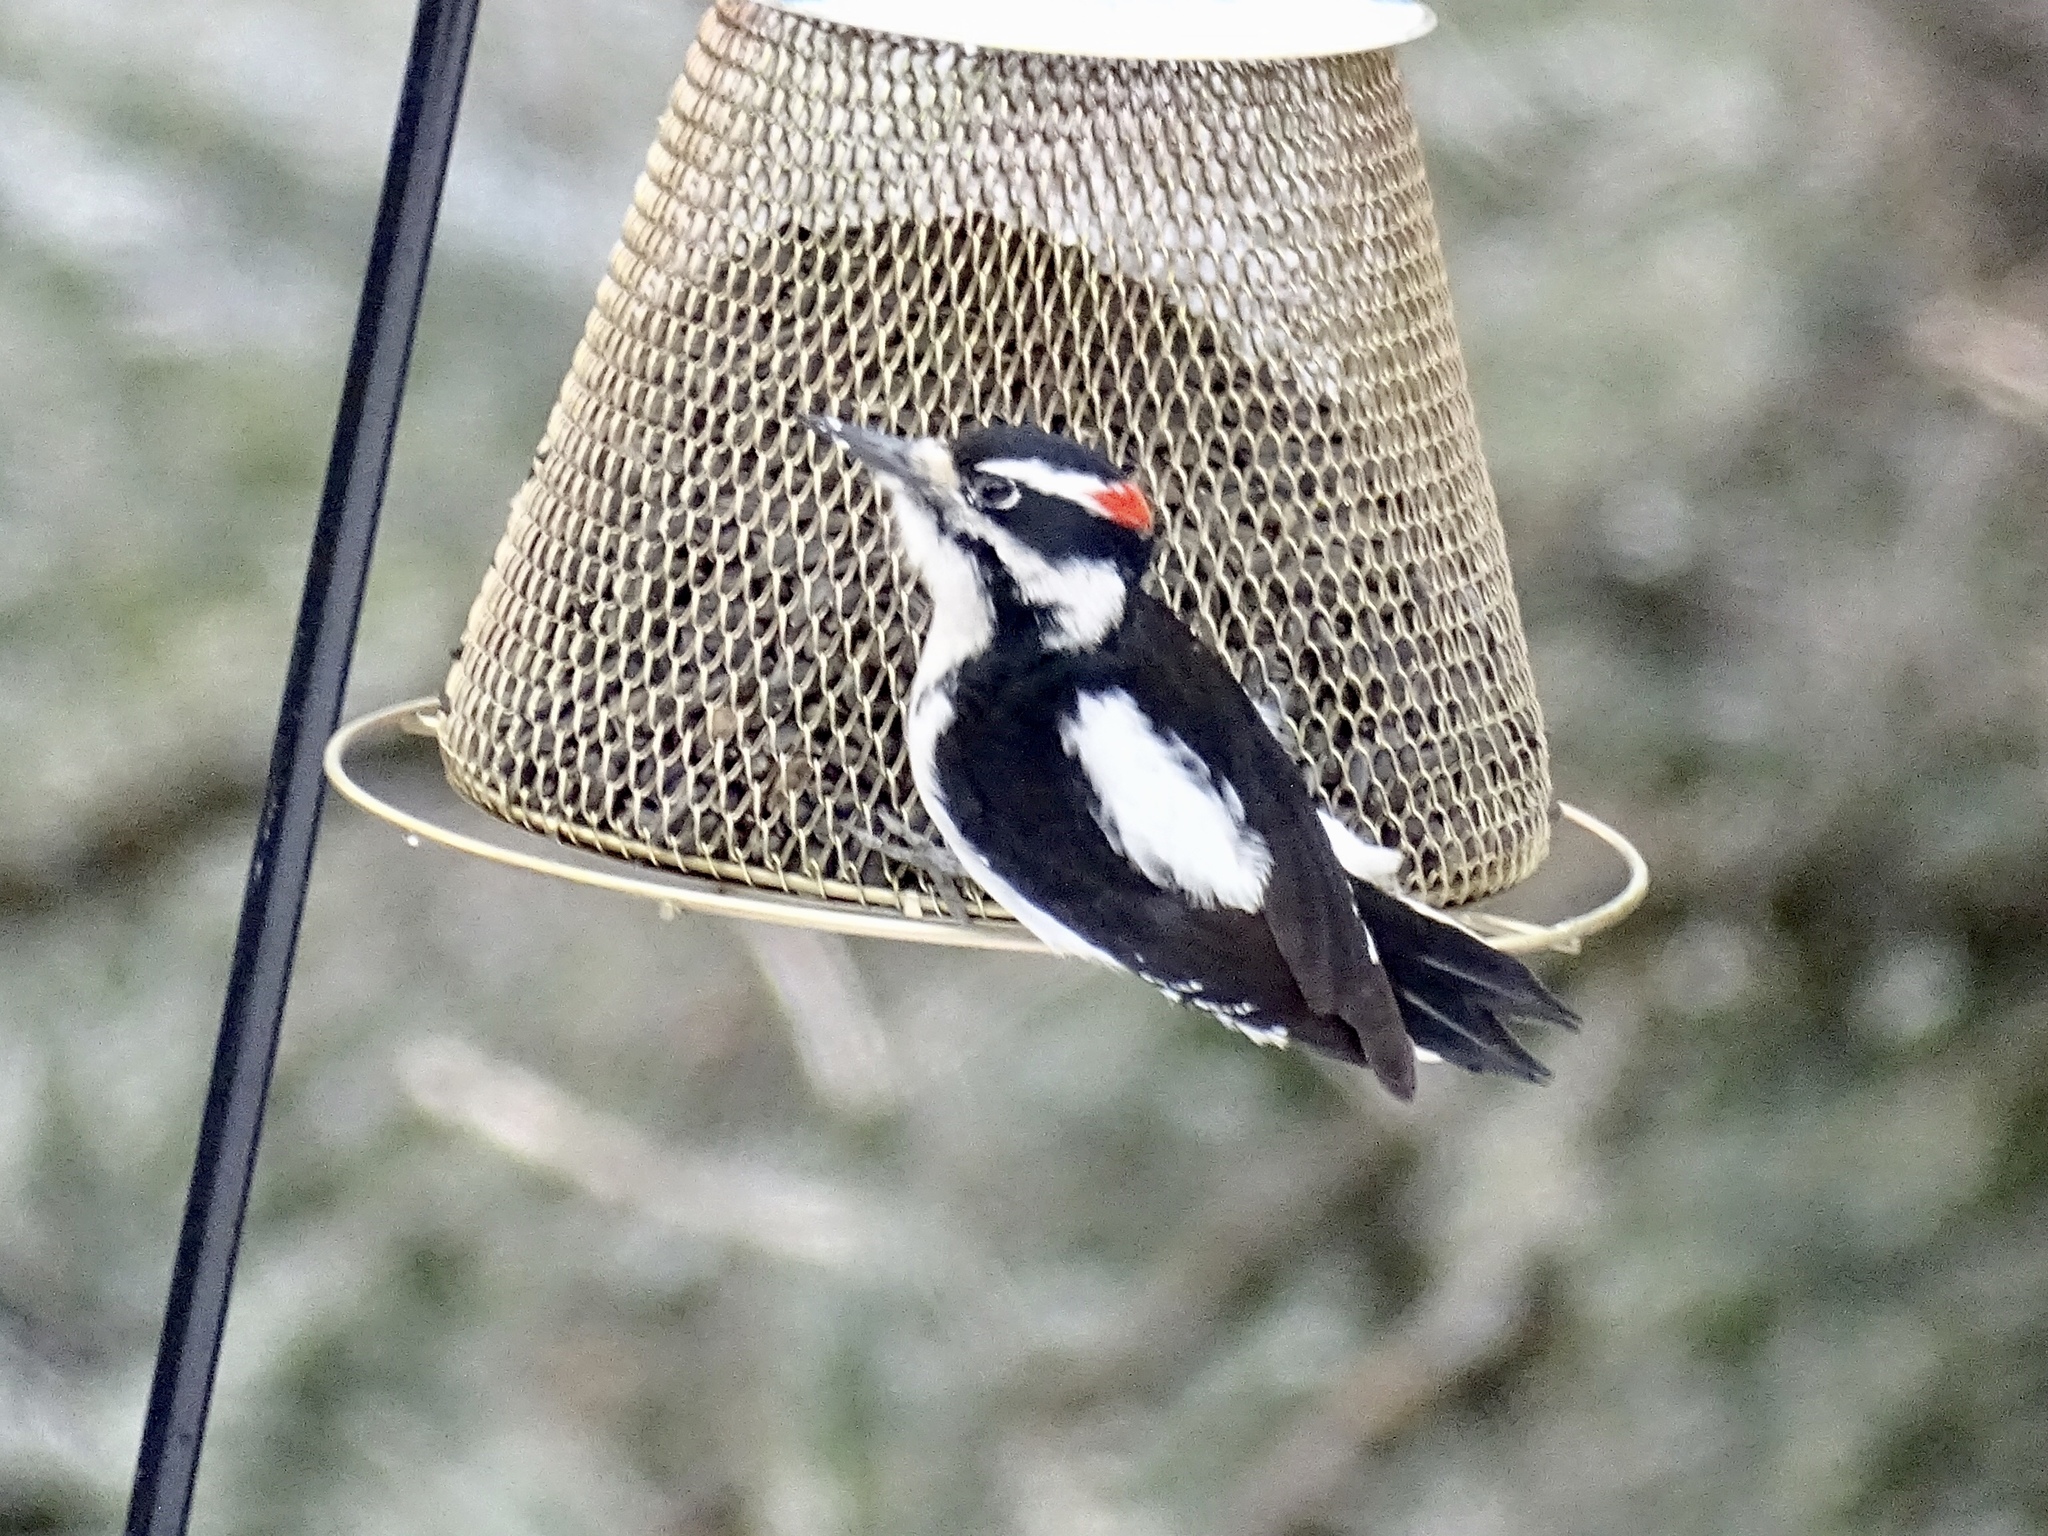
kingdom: Animalia
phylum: Chordata
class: Aves
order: Piciformes
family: Picidae
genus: Leuconotopicus
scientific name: Leuconotopicus villosus
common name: Hairy woodpecker
